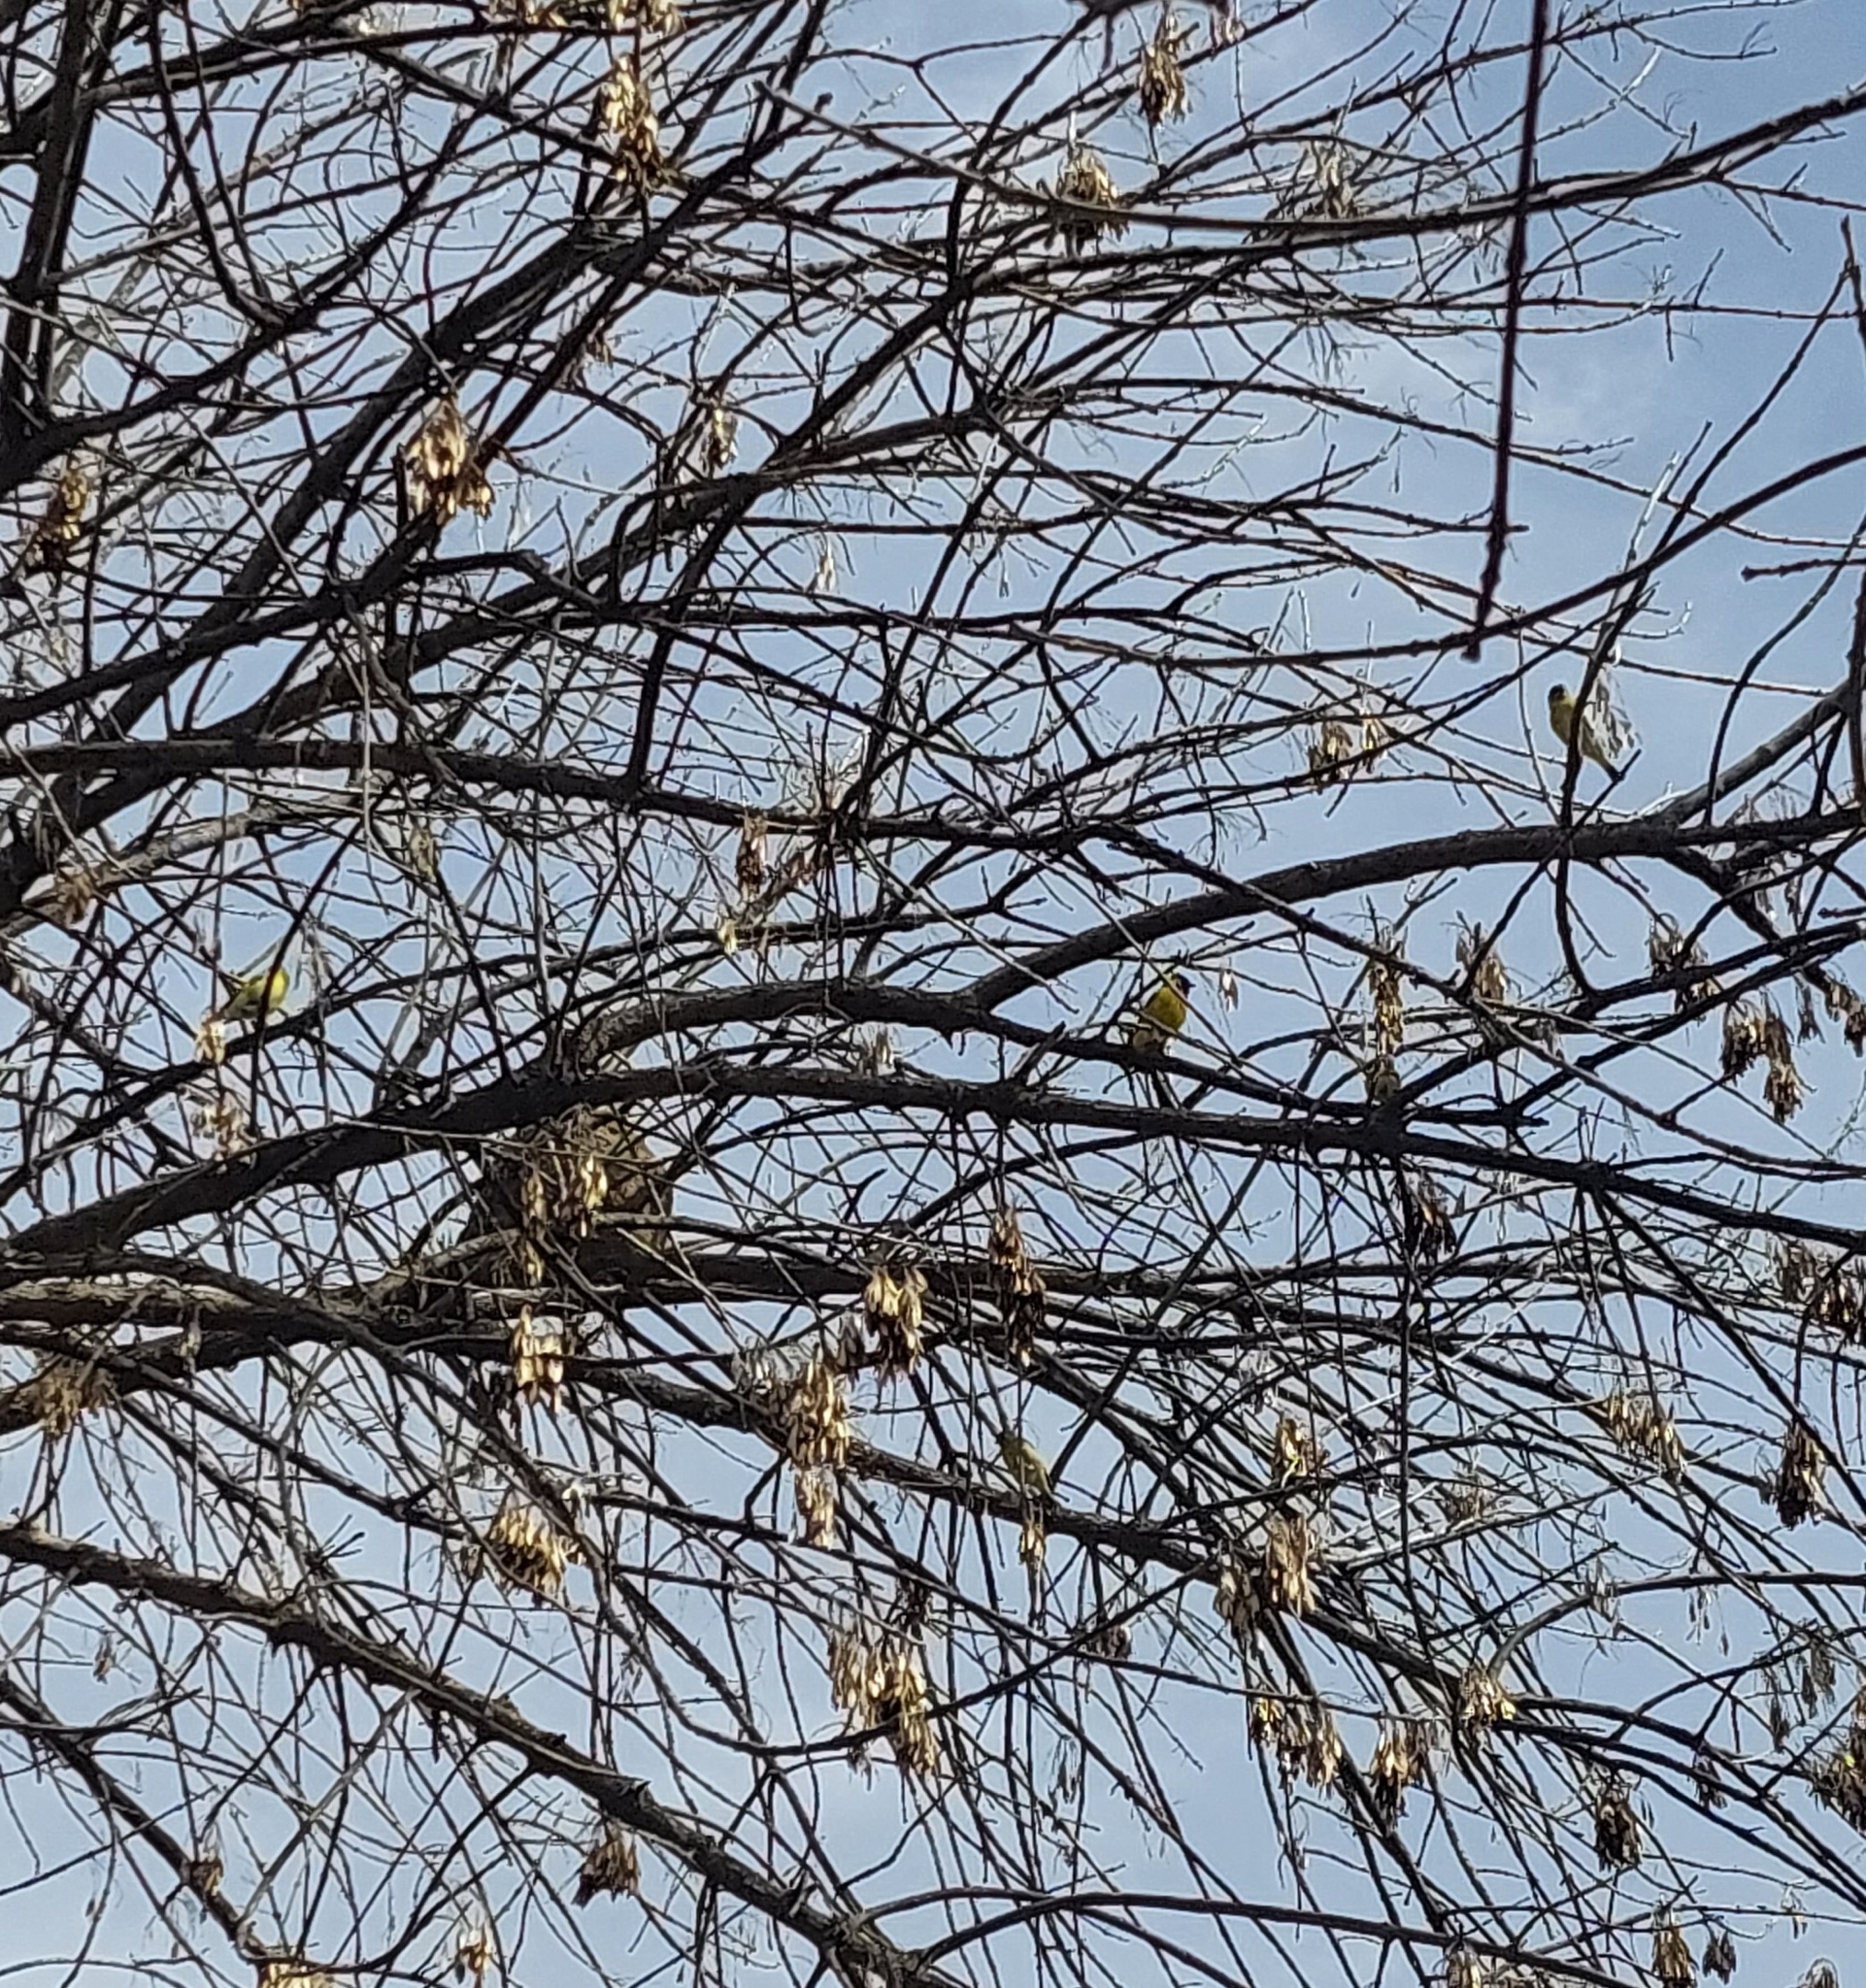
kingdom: Animalia
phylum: Chordata
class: Aves
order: Passeriformes
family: Fringillidae
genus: Spinus
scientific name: Spinus magellanicus
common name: Hooded siskin
